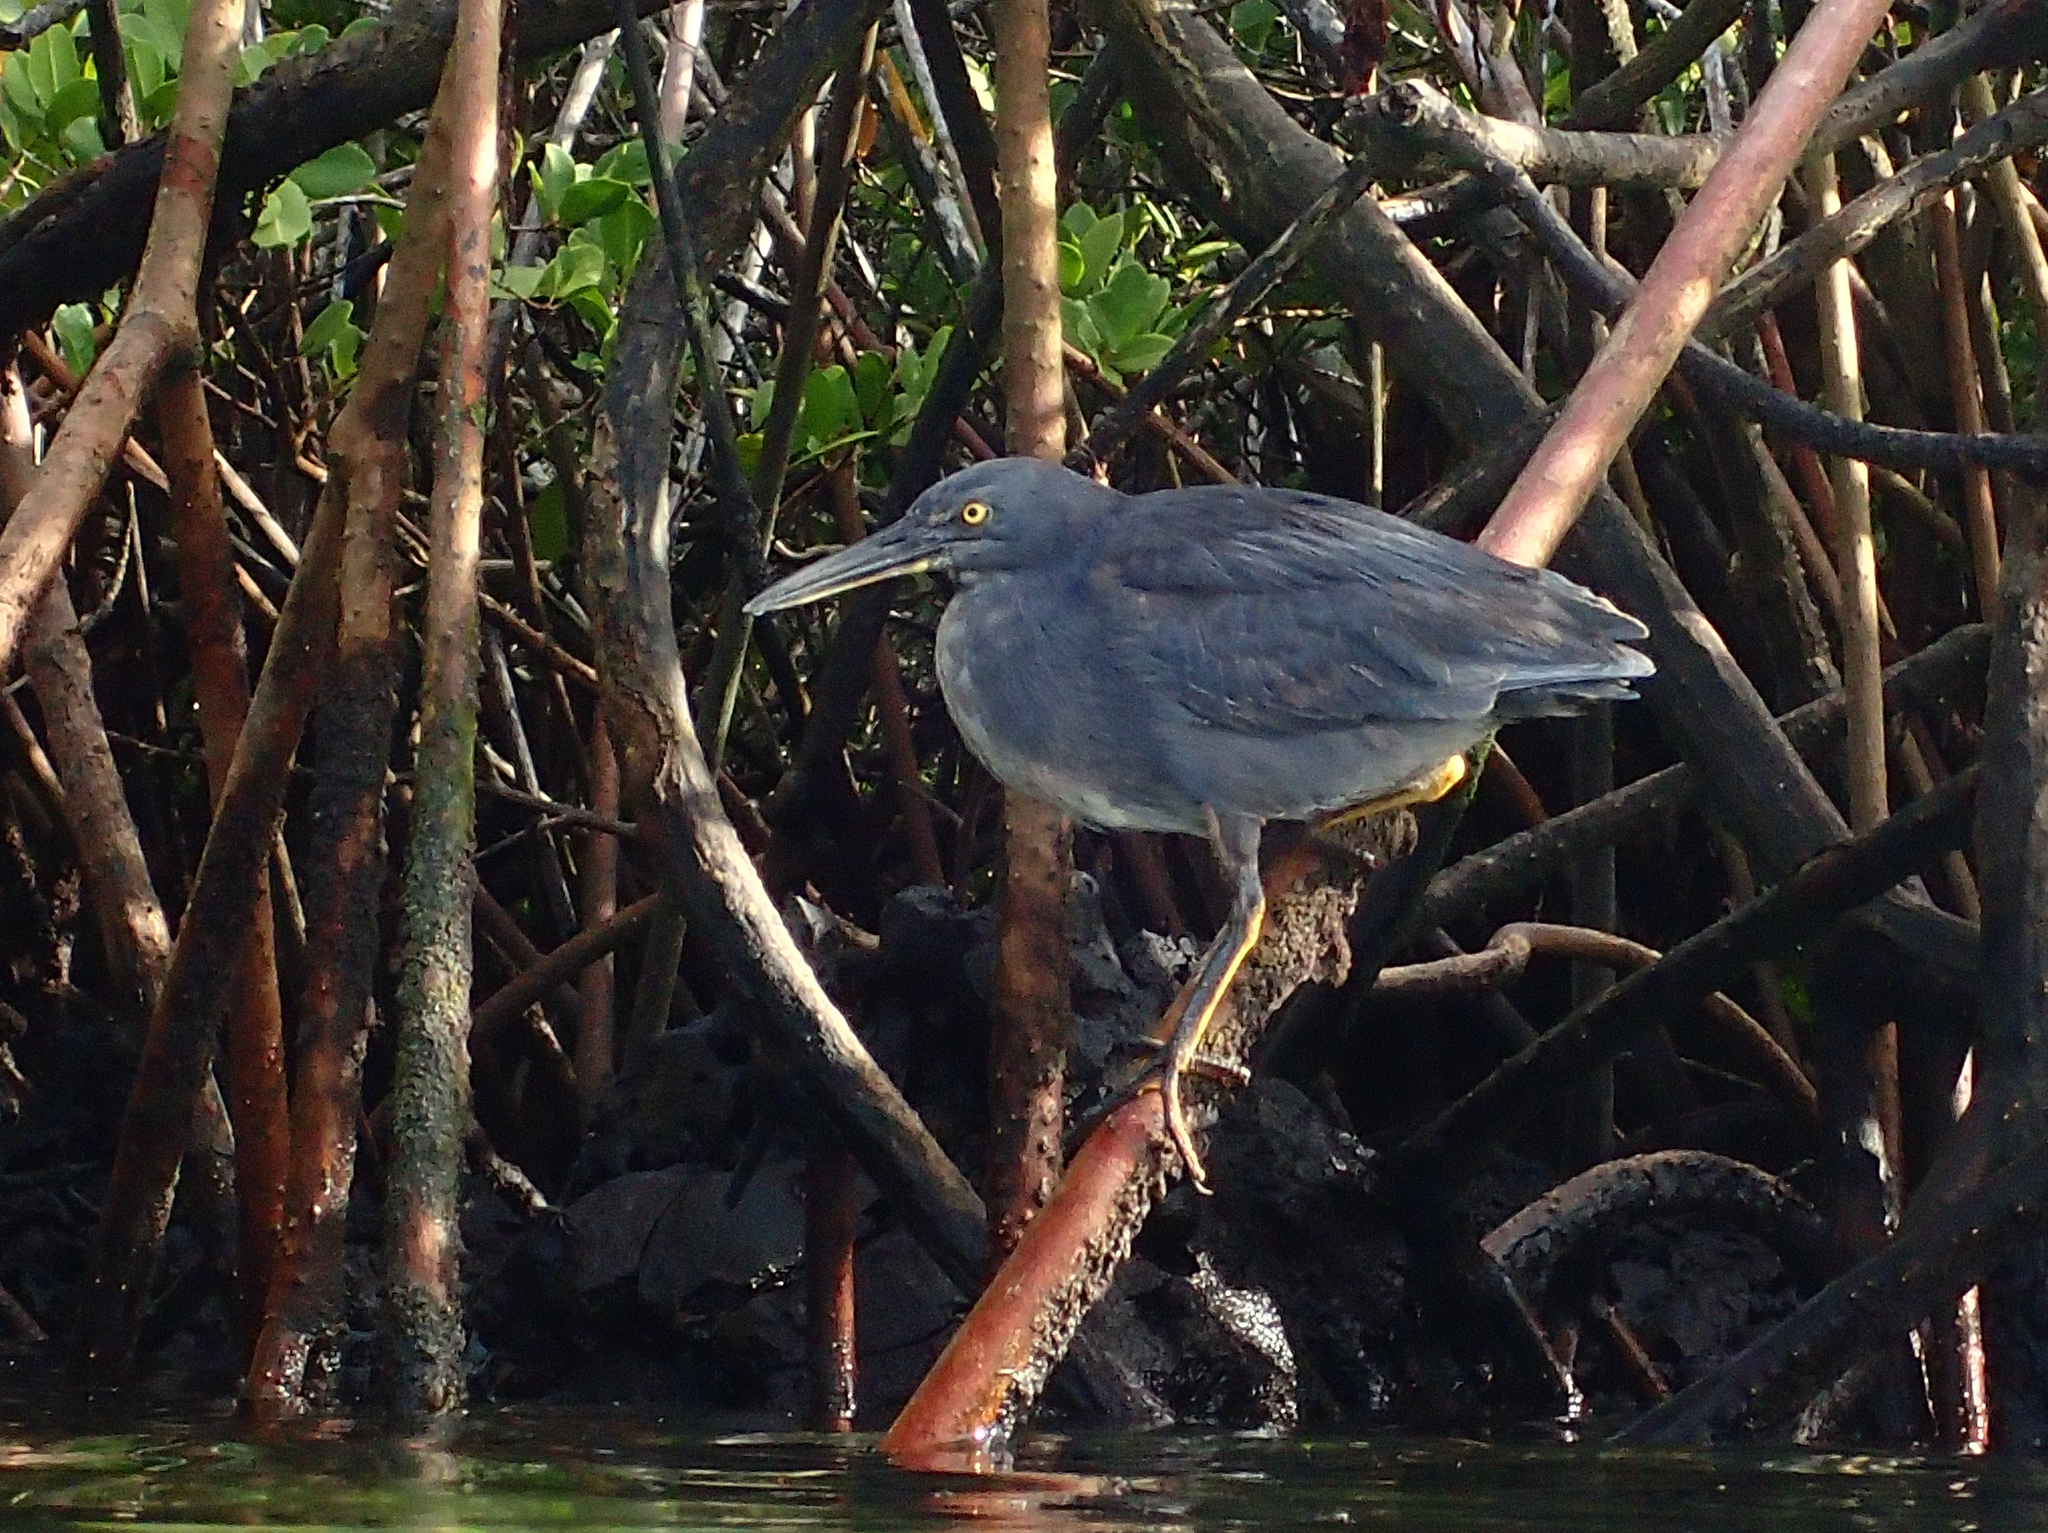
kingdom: Animalia
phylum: Chordata
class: Aves
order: Pelecaniformes
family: Ardeidae
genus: Butorides
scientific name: Butorides striata
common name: Striated heron
